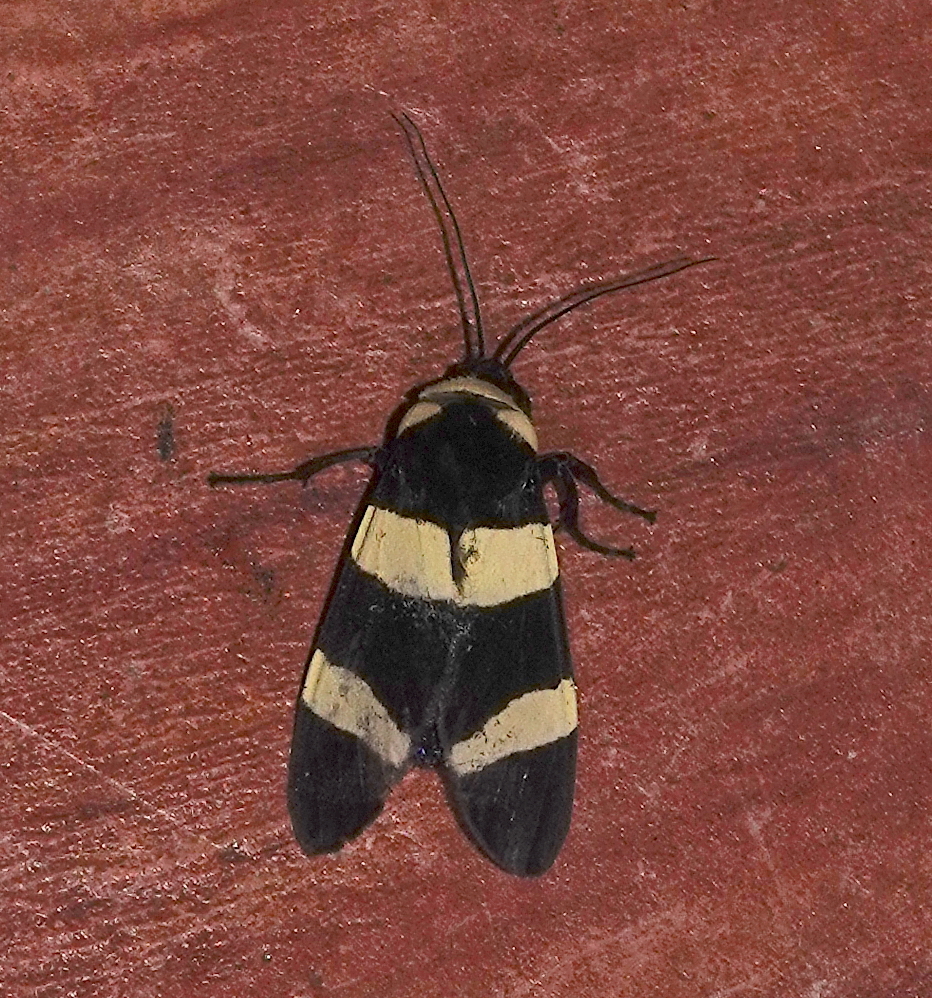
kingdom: Animalia
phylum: Arthropoda
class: Insecta
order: Lepidoptera
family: Erebidae
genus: Viviennea
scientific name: Viviennea moma
